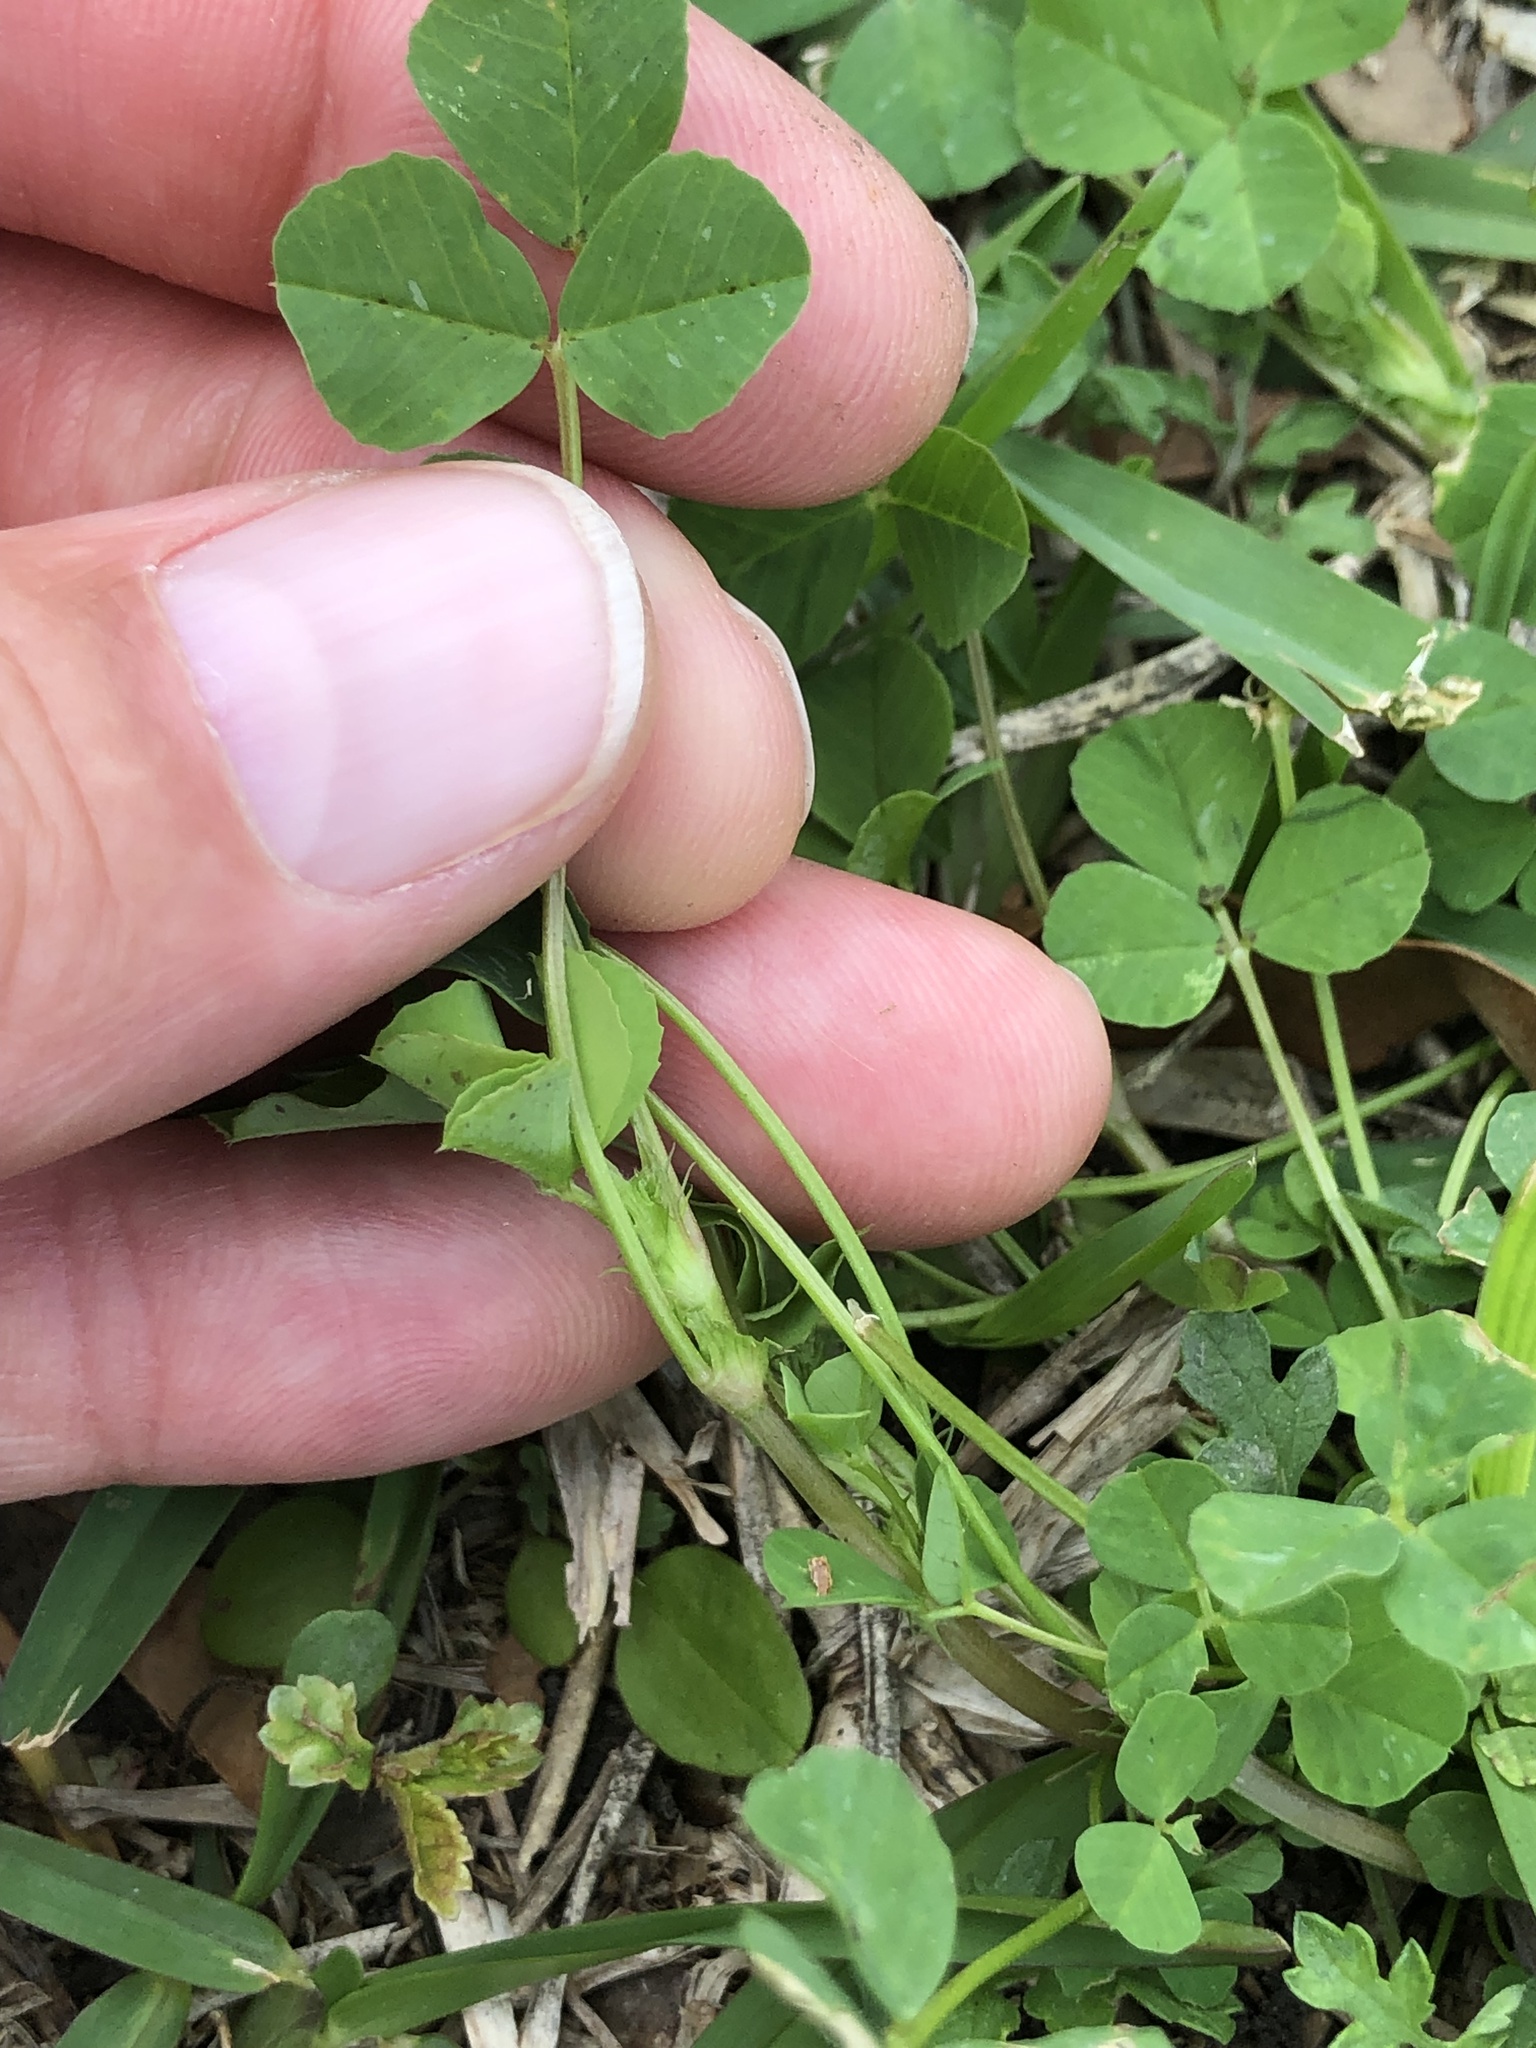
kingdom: Plantae
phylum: Tracheophyta
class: Magnoliopsida
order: Fabales
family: Fabaceae
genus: Medicago
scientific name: Medicago polymorpha
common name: Burclover
